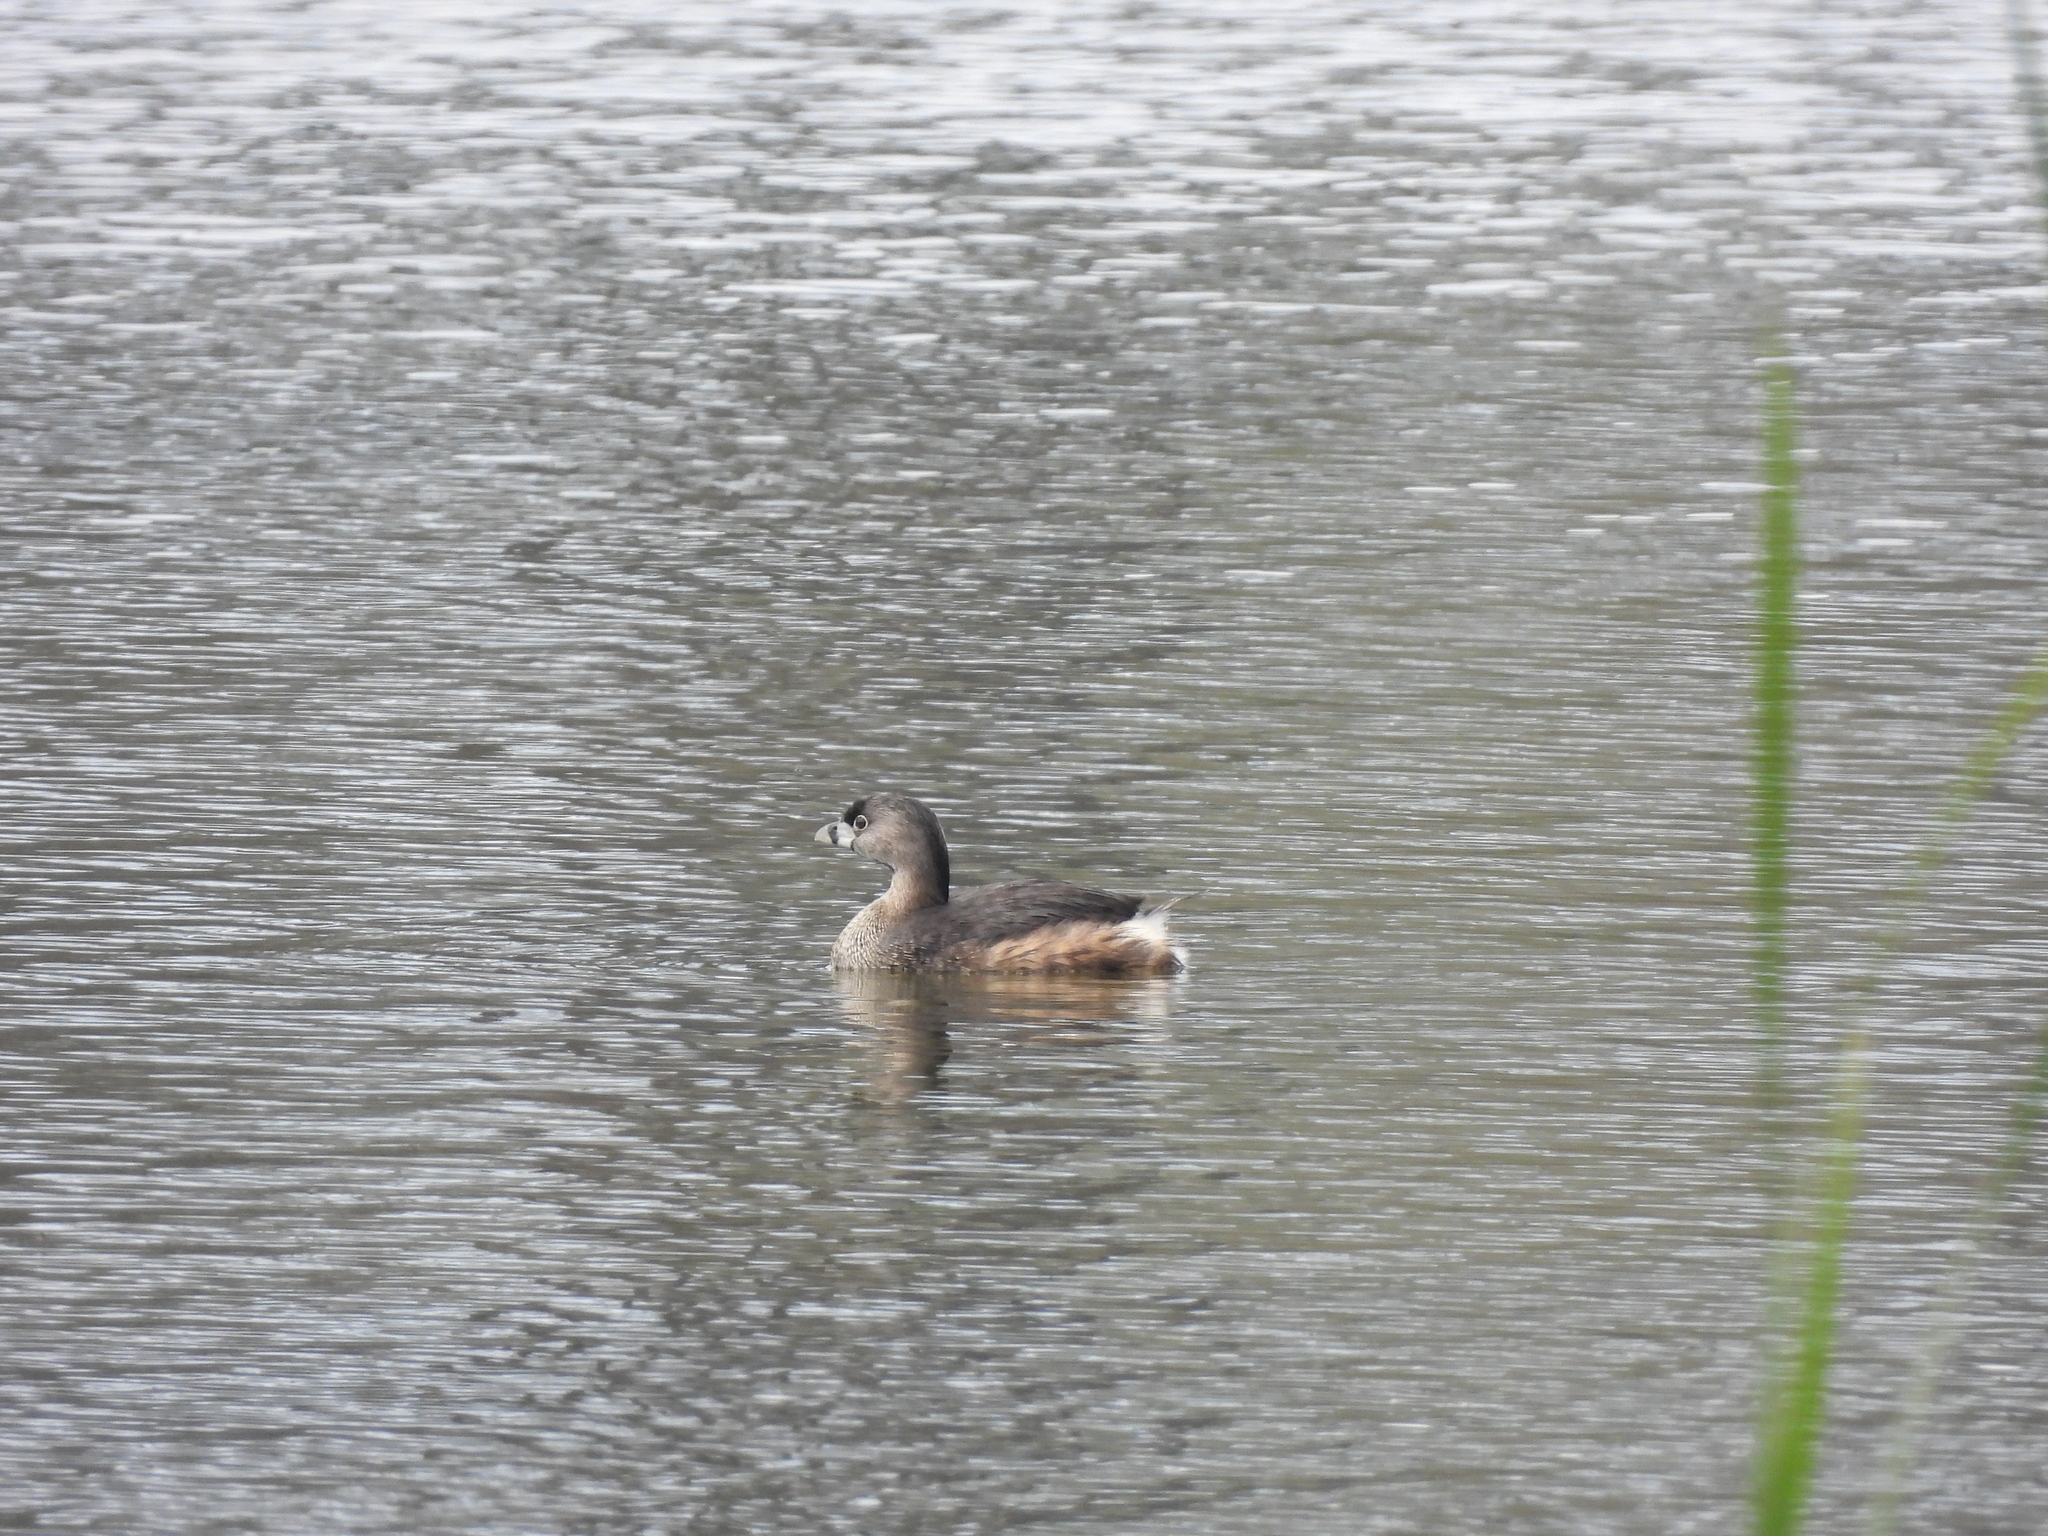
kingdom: Animalia
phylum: Chordata
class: Aves
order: Podicipediformes
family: Podicipedidae
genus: Podilymbus
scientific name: Podilymbus podiceps
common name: Pied-billed grebe
